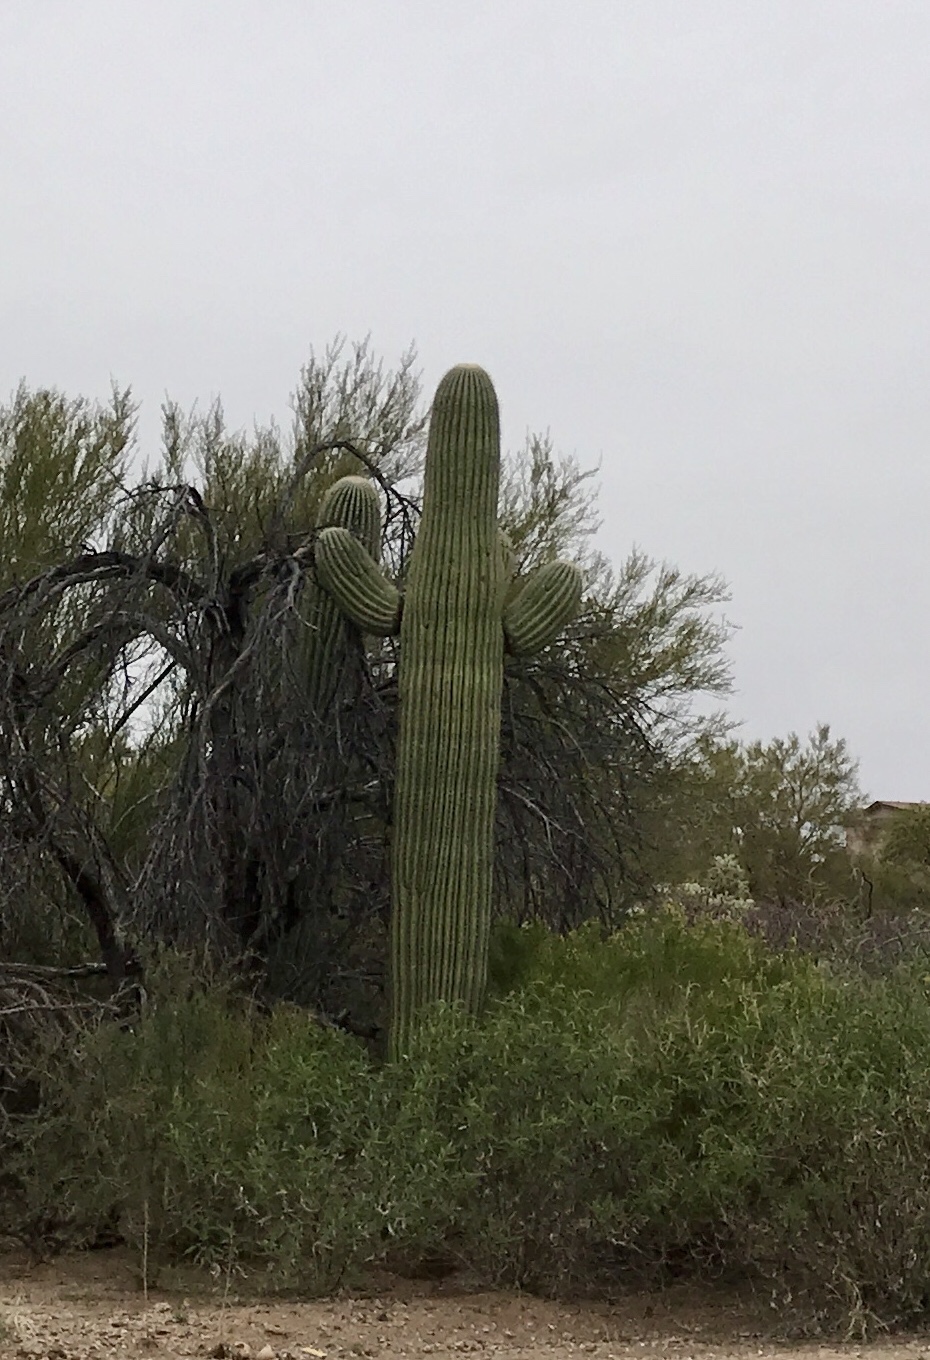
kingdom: Plantae
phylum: Tracheophyta
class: Magnoliopsida
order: Caryophyllales
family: Cactaceae
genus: Carnegiea
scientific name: Carnegiea gigantea
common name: Saguaro
